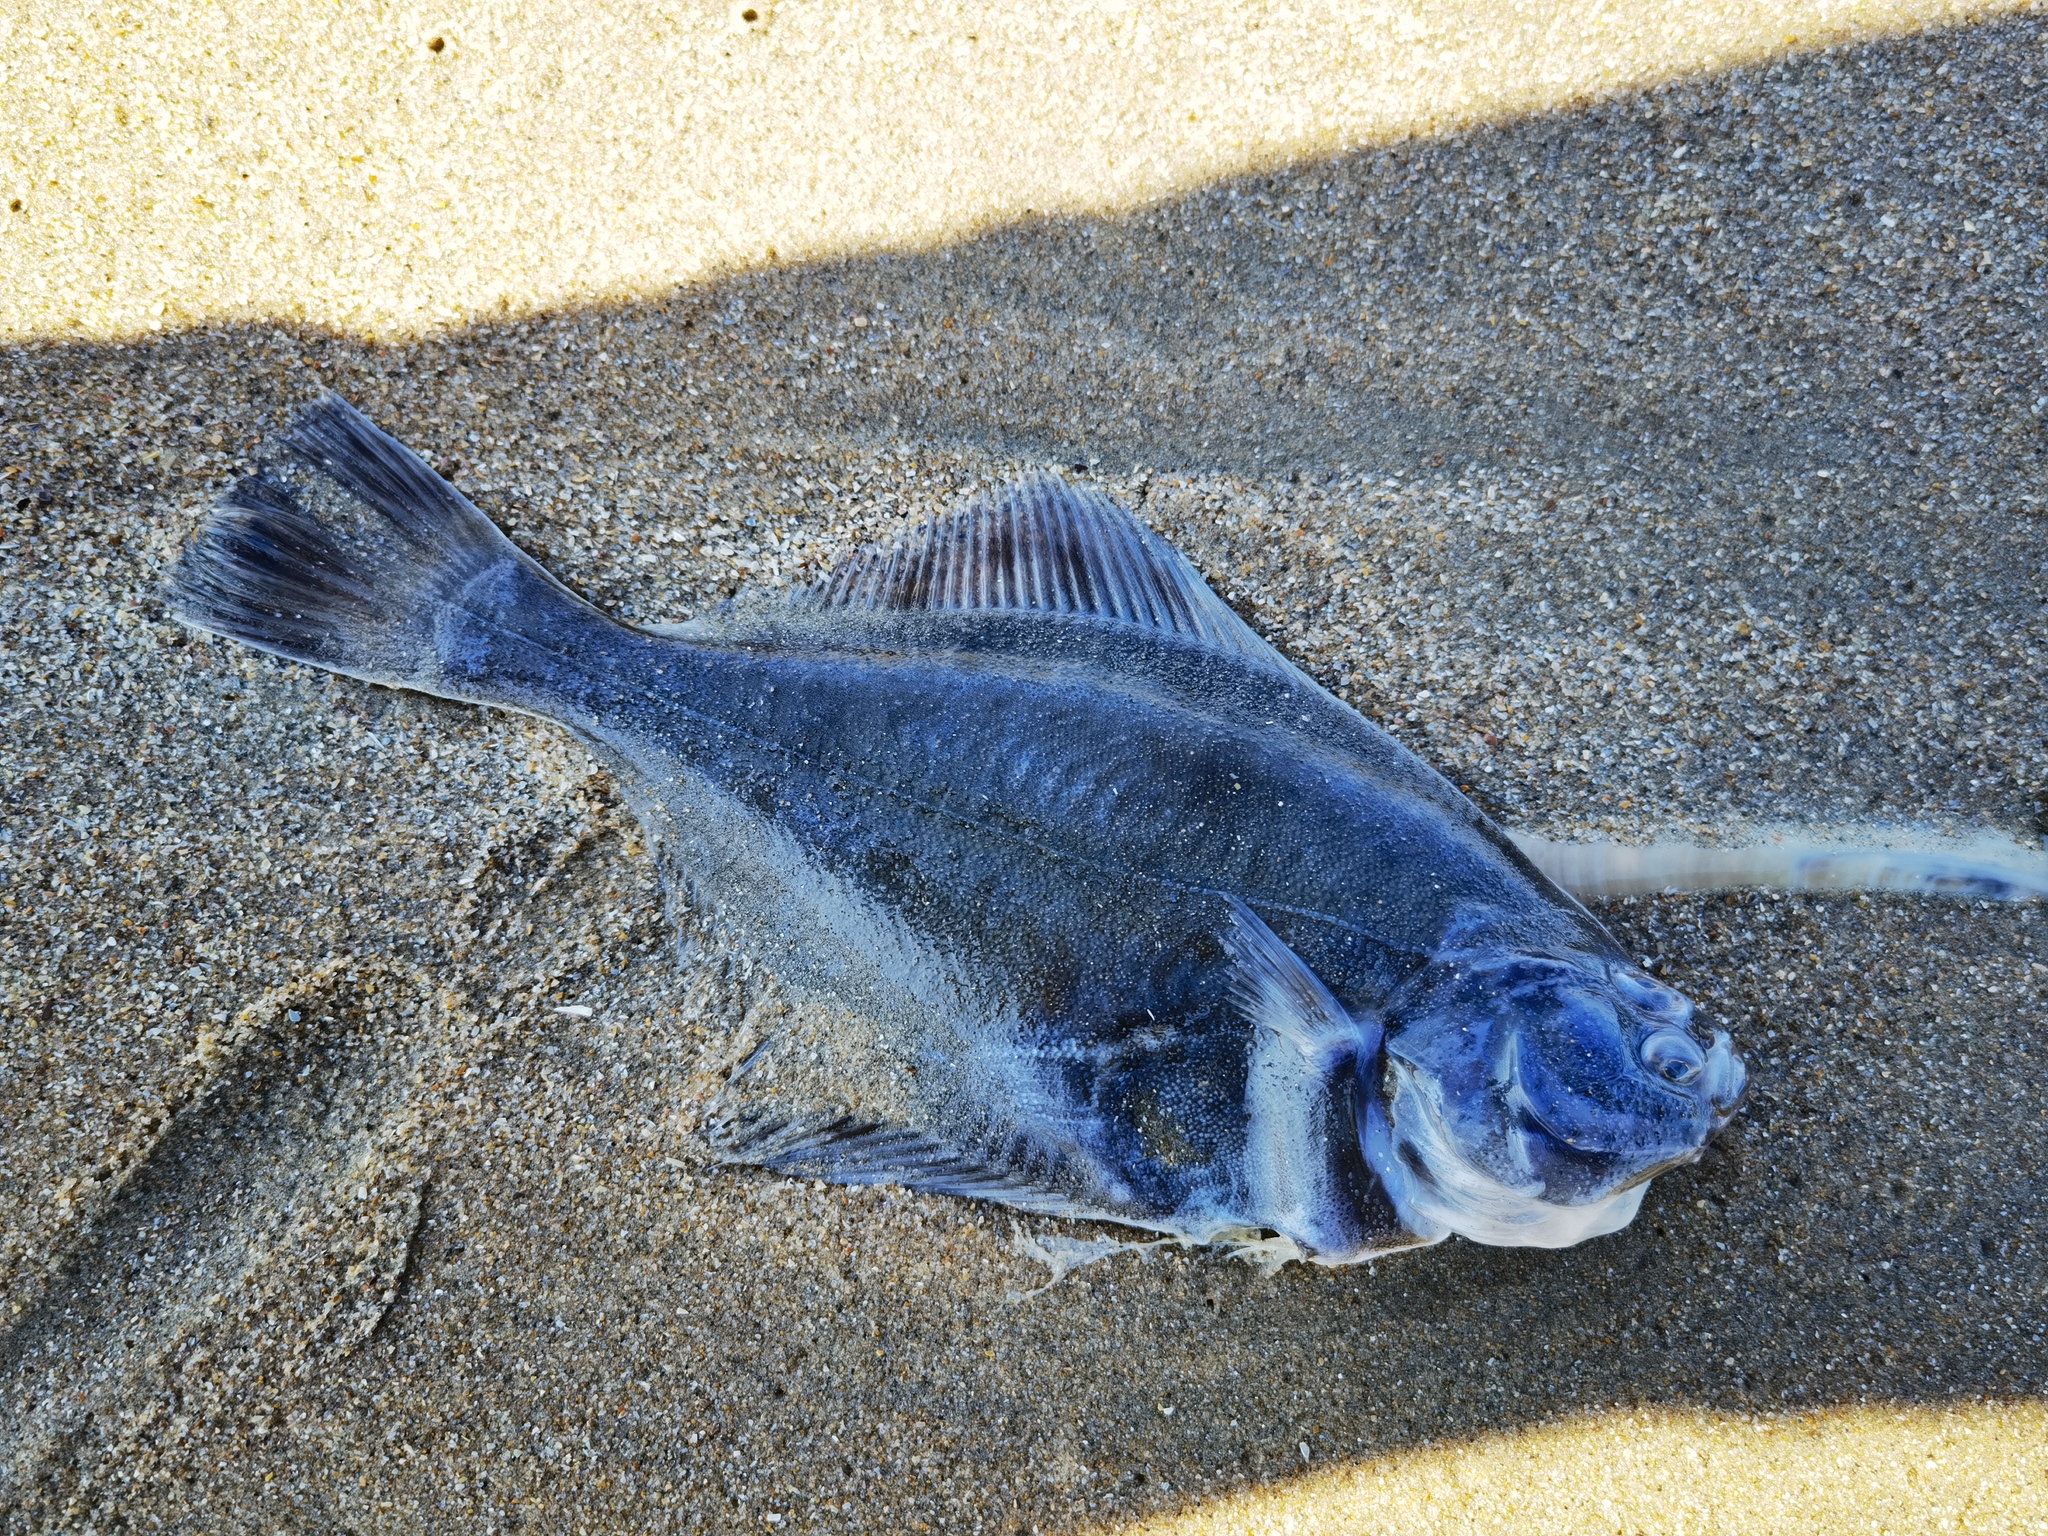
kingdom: Animalia
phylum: Chordata
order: Pleuronectiformes
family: Pleuronectidae
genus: Pleuronectes
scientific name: Pleuronectes platessa
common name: Plaice
